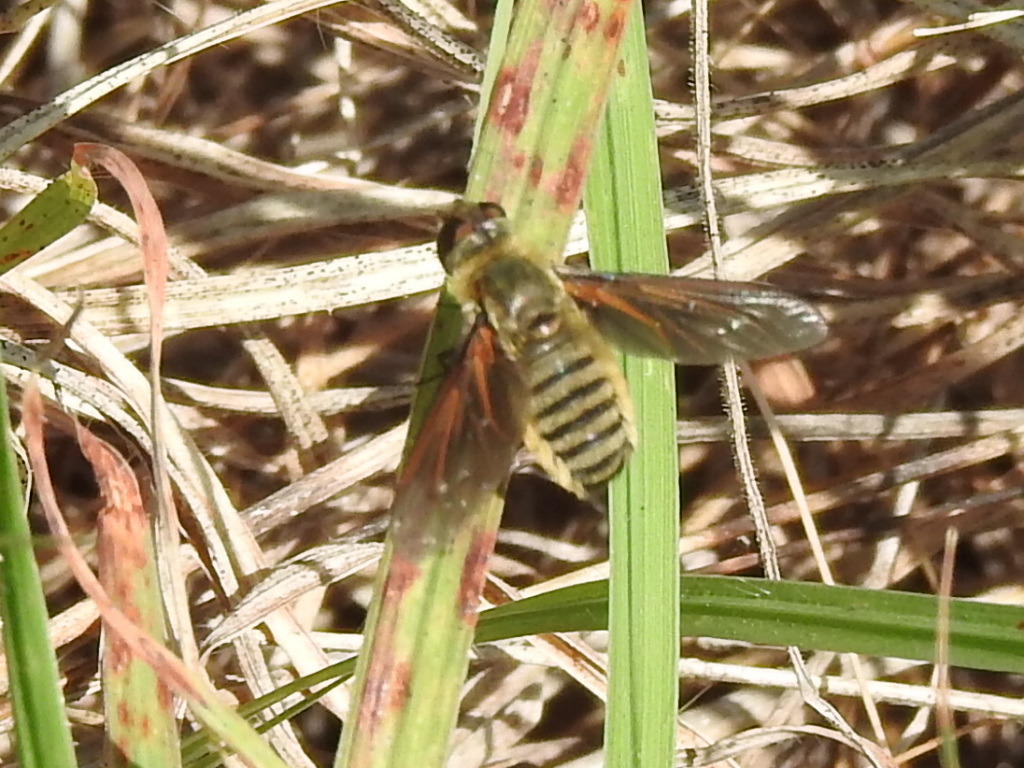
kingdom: Animalia
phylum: Arthropoda
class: Insecta
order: Diptera
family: Bombyliidae
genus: Poecilanthrax
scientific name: Poecilanthrax lucifer
